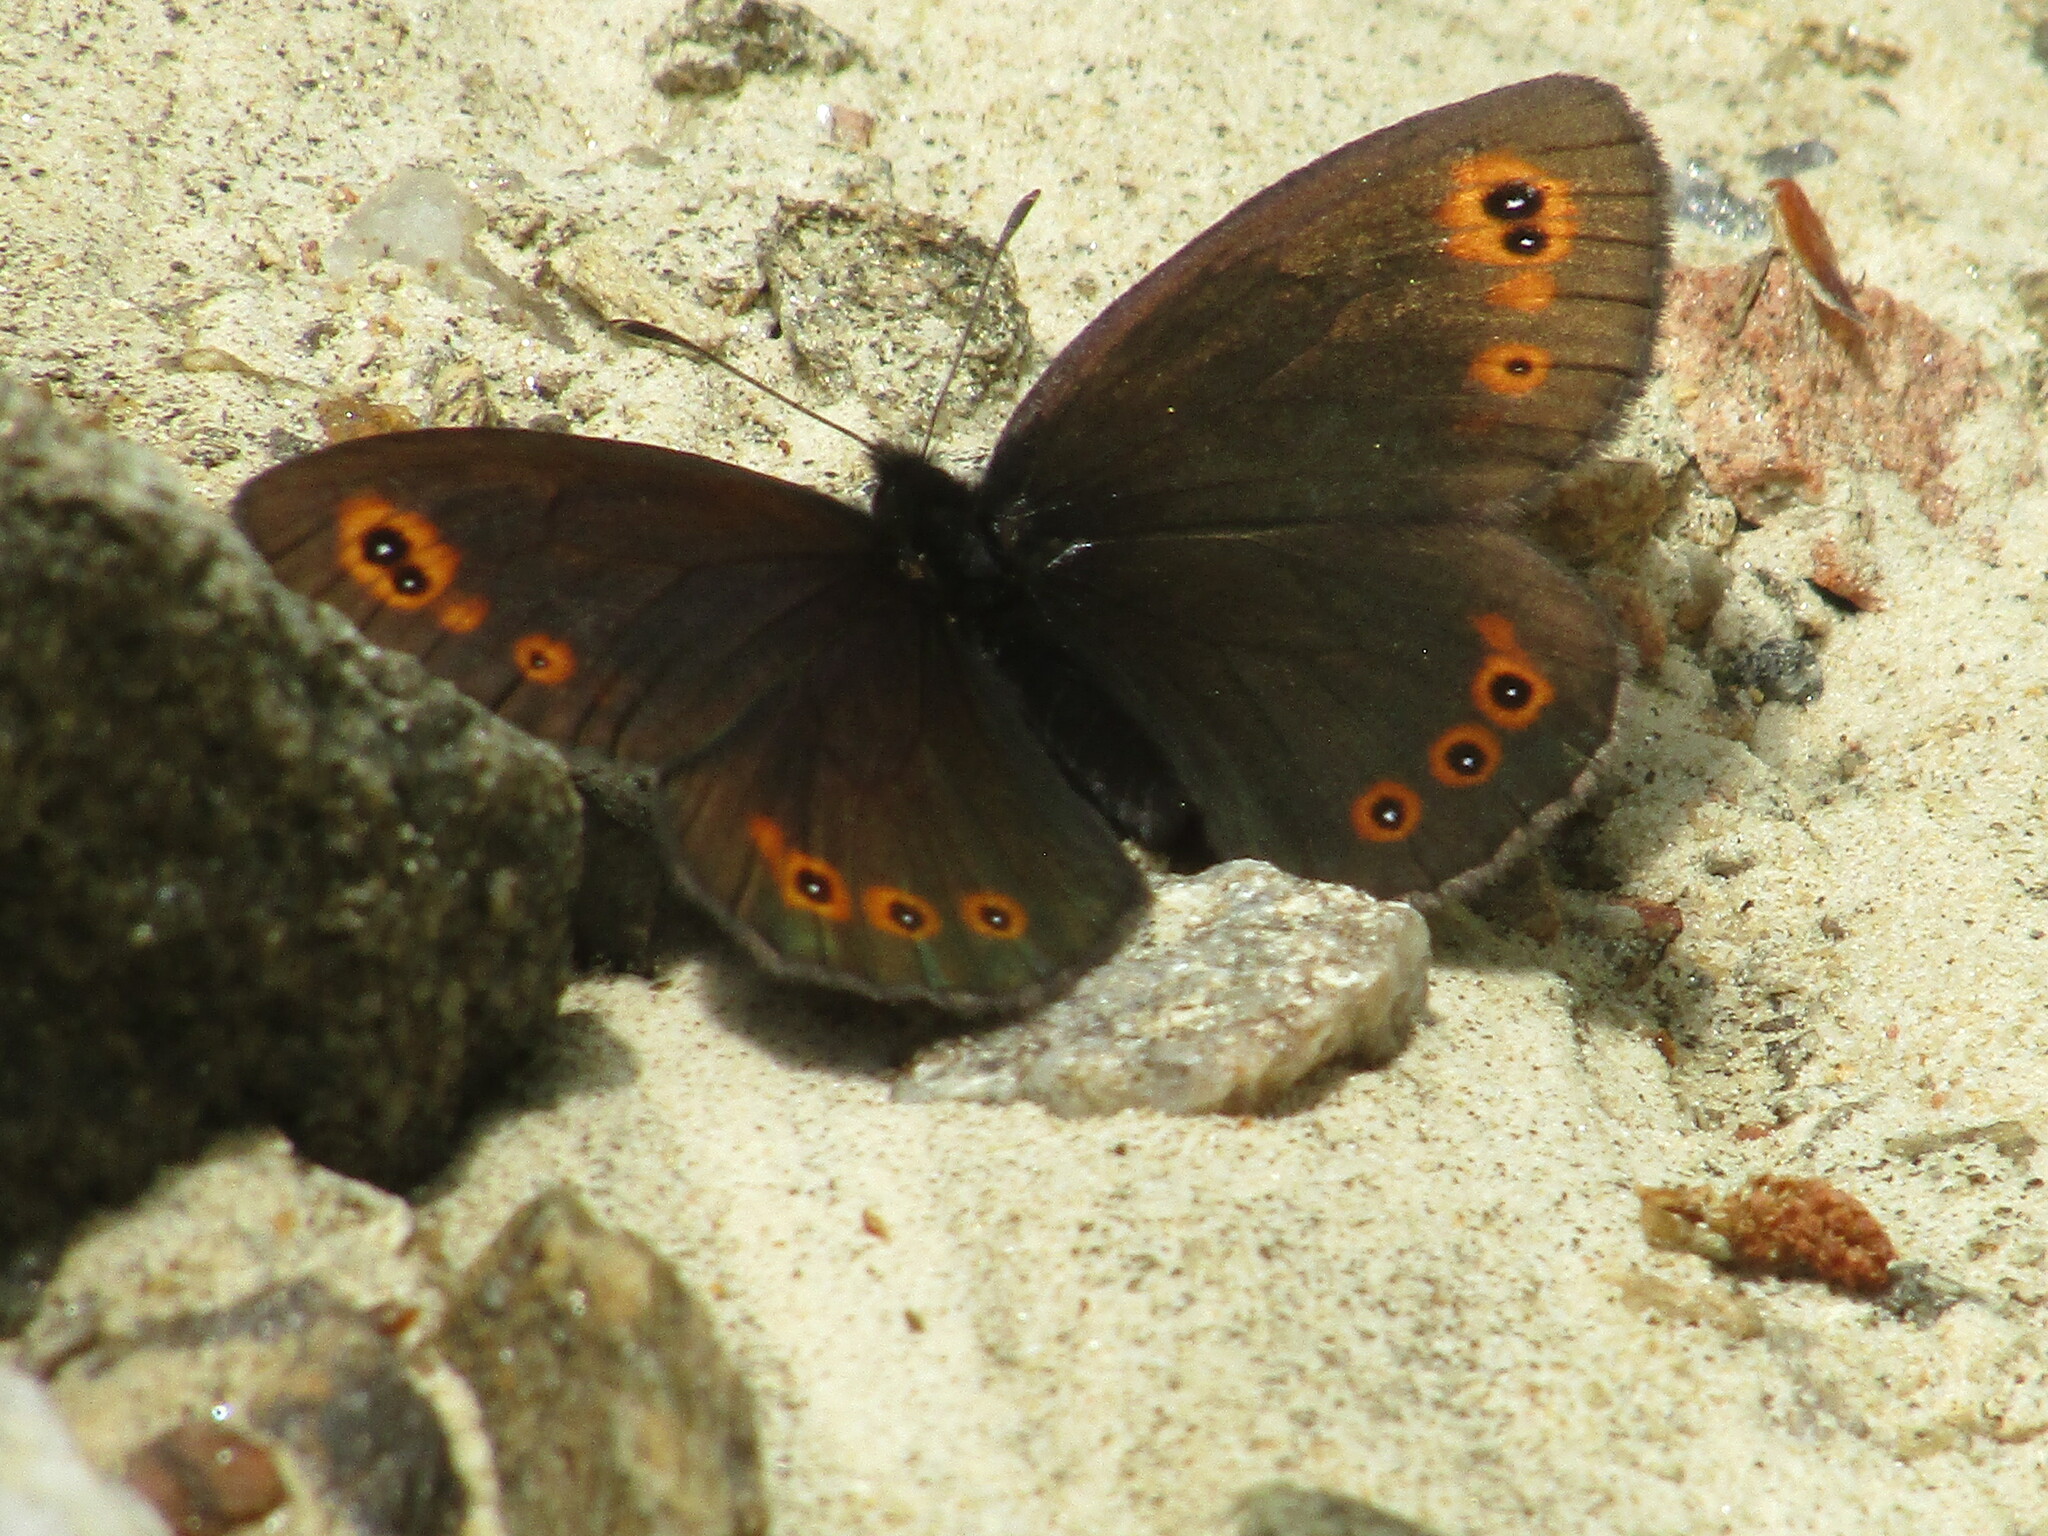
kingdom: Animalia
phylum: Arthropoda
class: Insecta
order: Lepidoptera
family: Nymphalidae
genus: Erebia
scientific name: Erebia medusa
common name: Woodland ringlet
